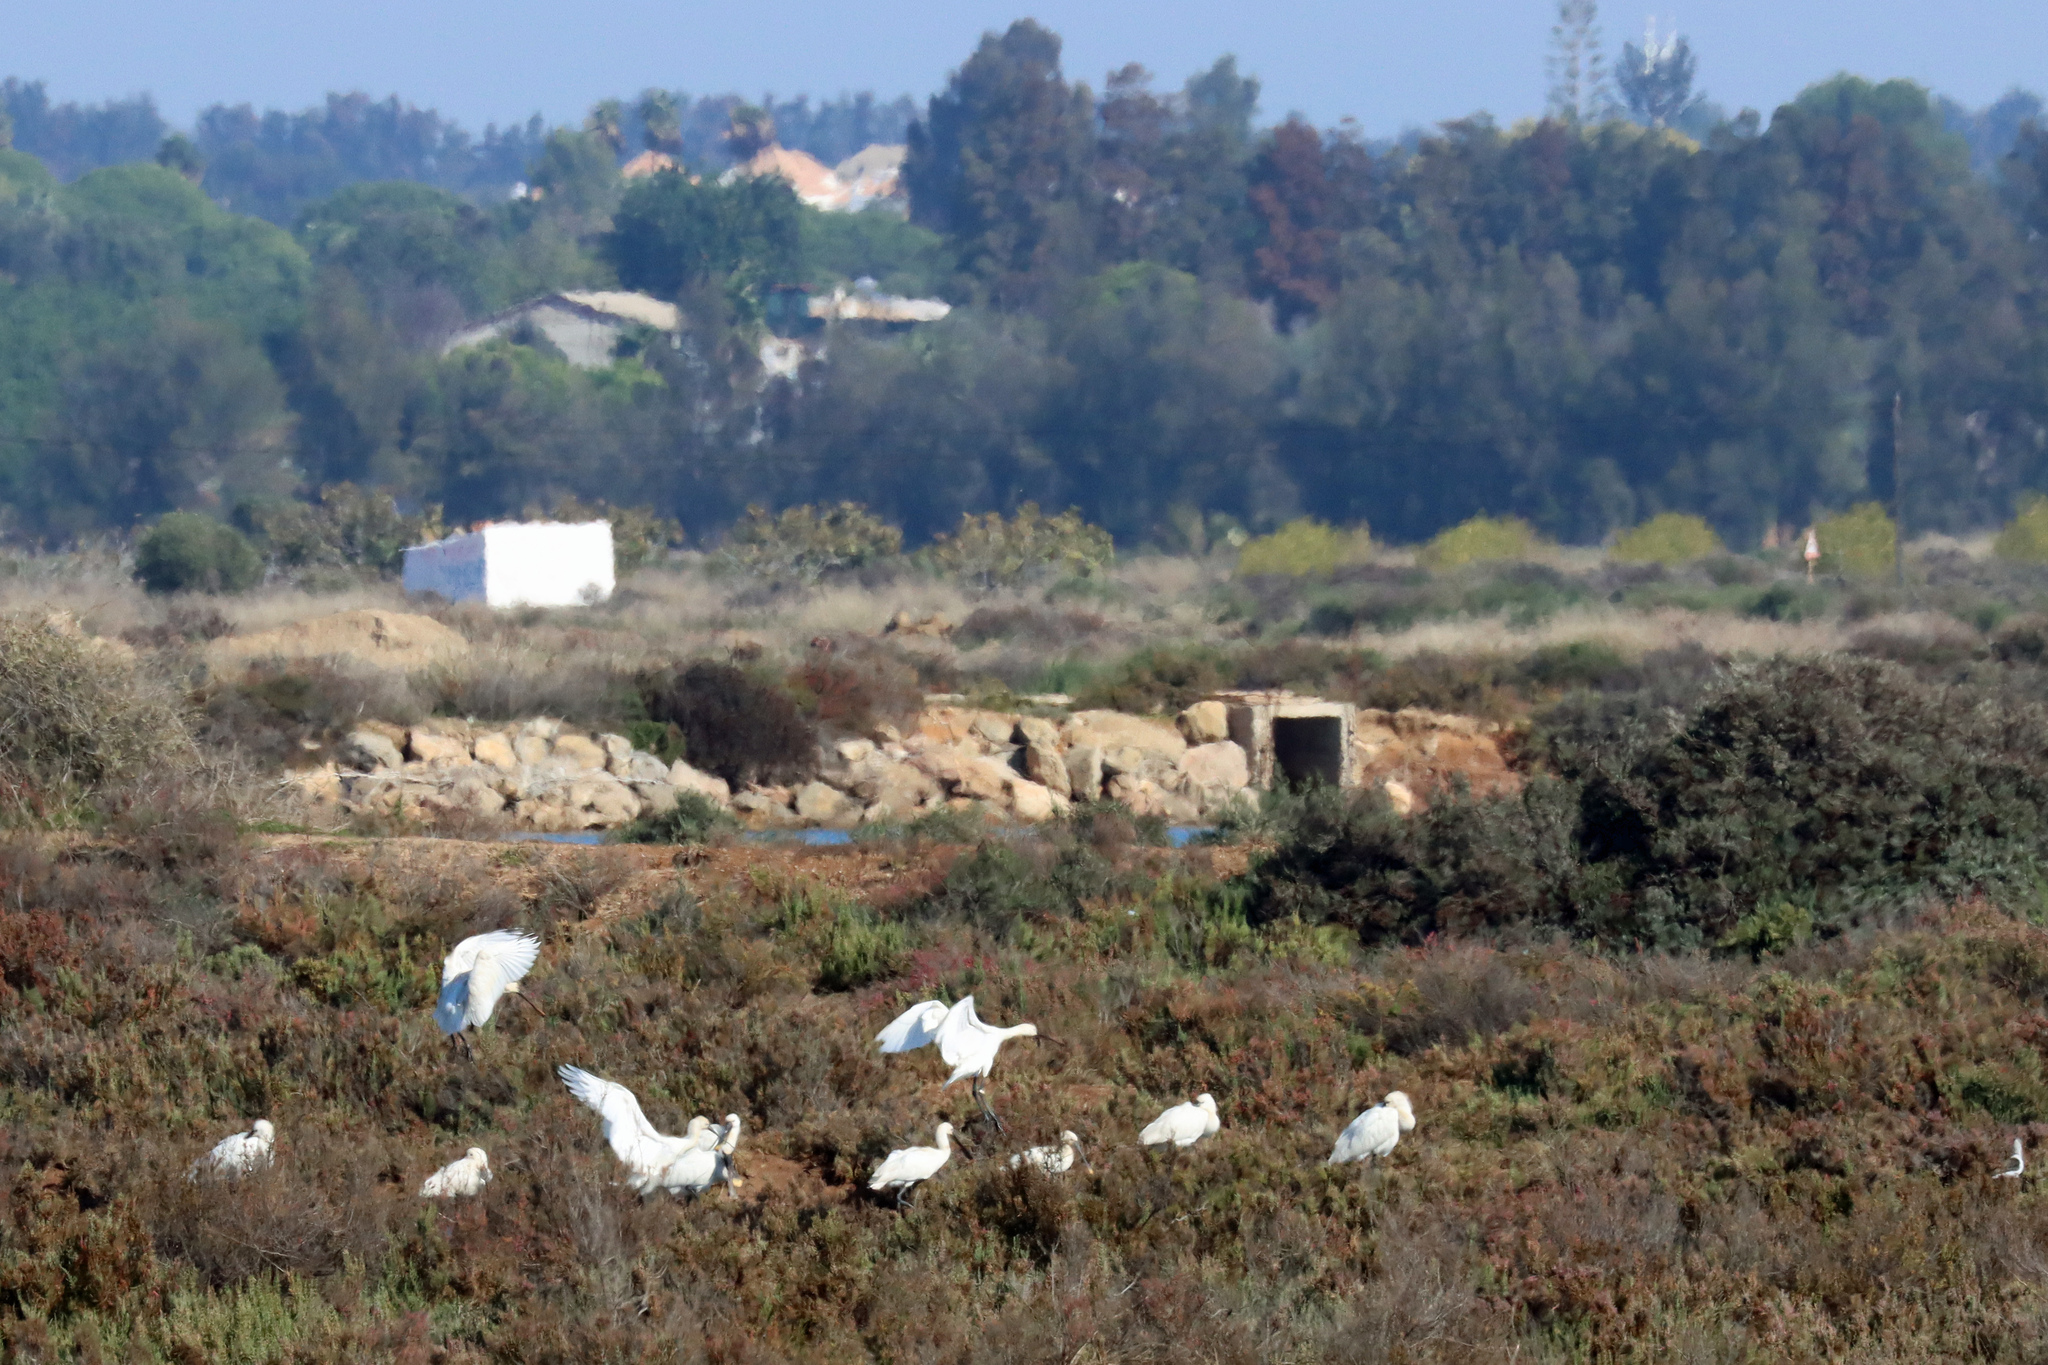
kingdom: Animalia
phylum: Chordata
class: Aves
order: Pelecaniformes
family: Threskiornithidae
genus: Platalea
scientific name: Platalea leucorodia
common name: Eurasian spoonbill
